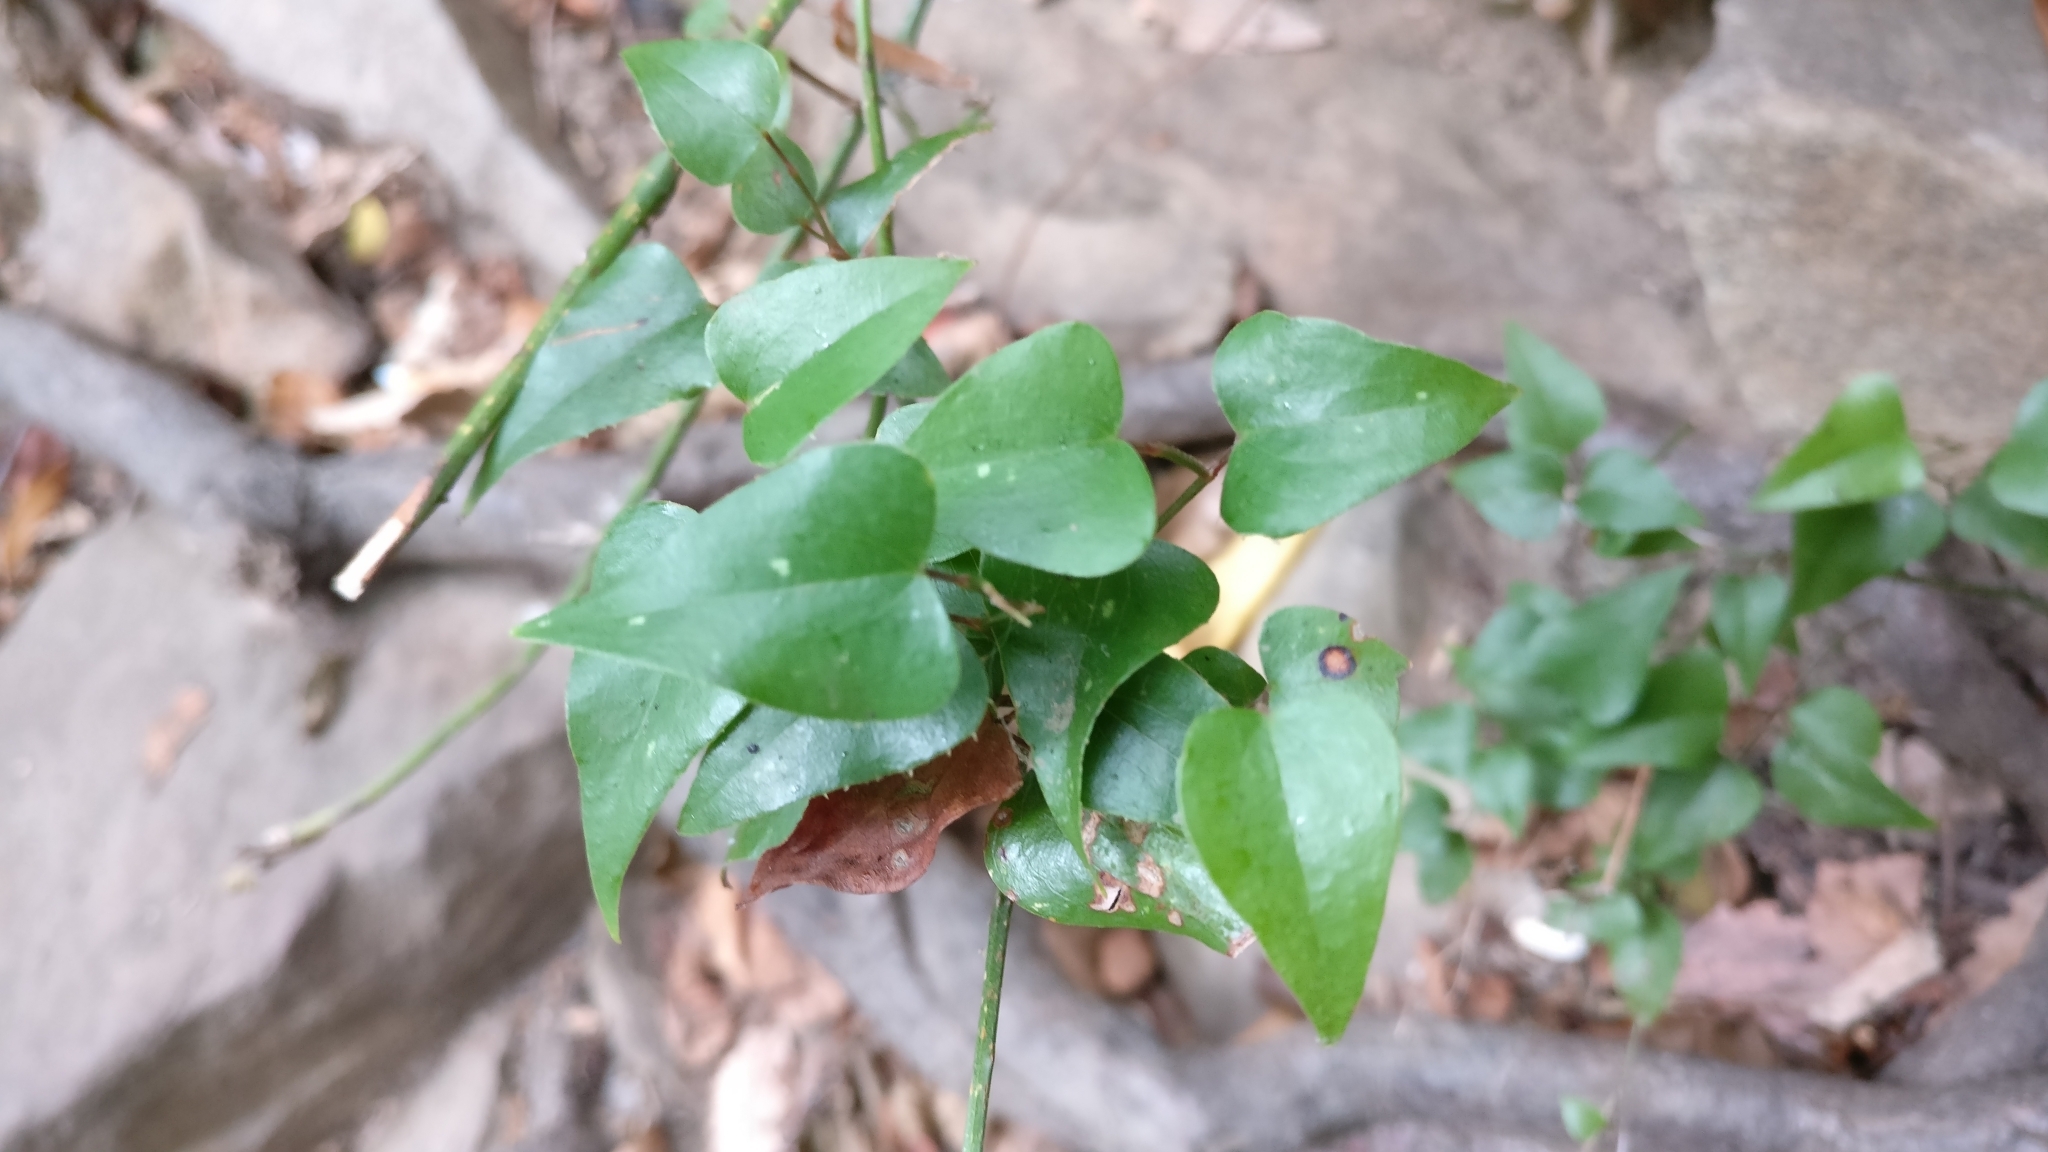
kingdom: Plantae
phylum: Tracheophyta
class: Liliopsida
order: Liliales
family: Smilacaceae
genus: Smilax
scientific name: Smilax aspera
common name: Common smilax
